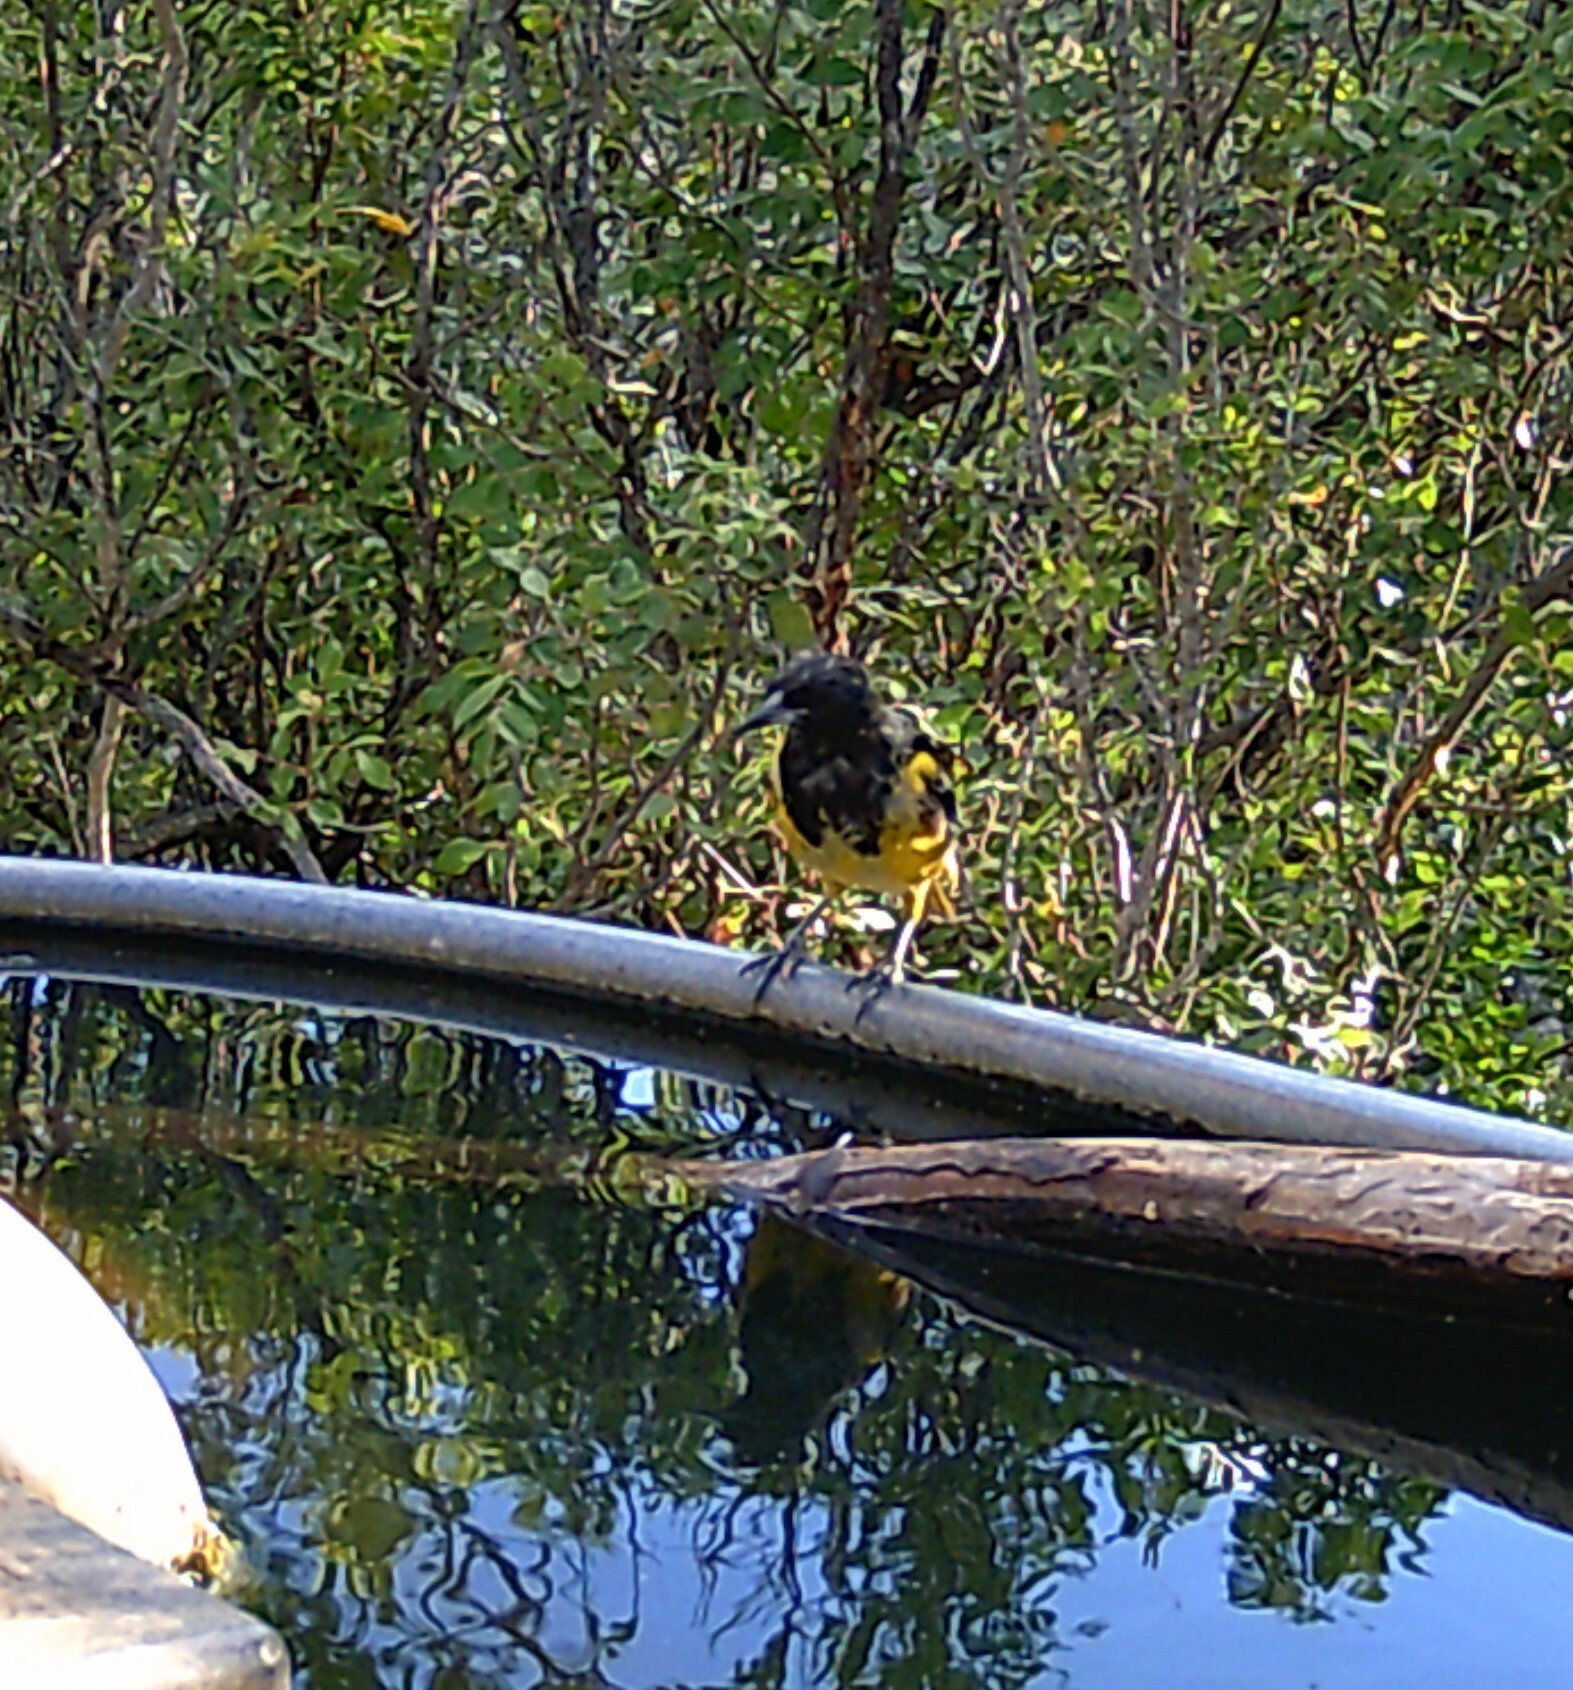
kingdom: Animalia
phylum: Chordata
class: Aves
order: Passeriformes
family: Icteridae
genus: Icterus
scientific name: Icterus parisorum
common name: Scott's oriole
